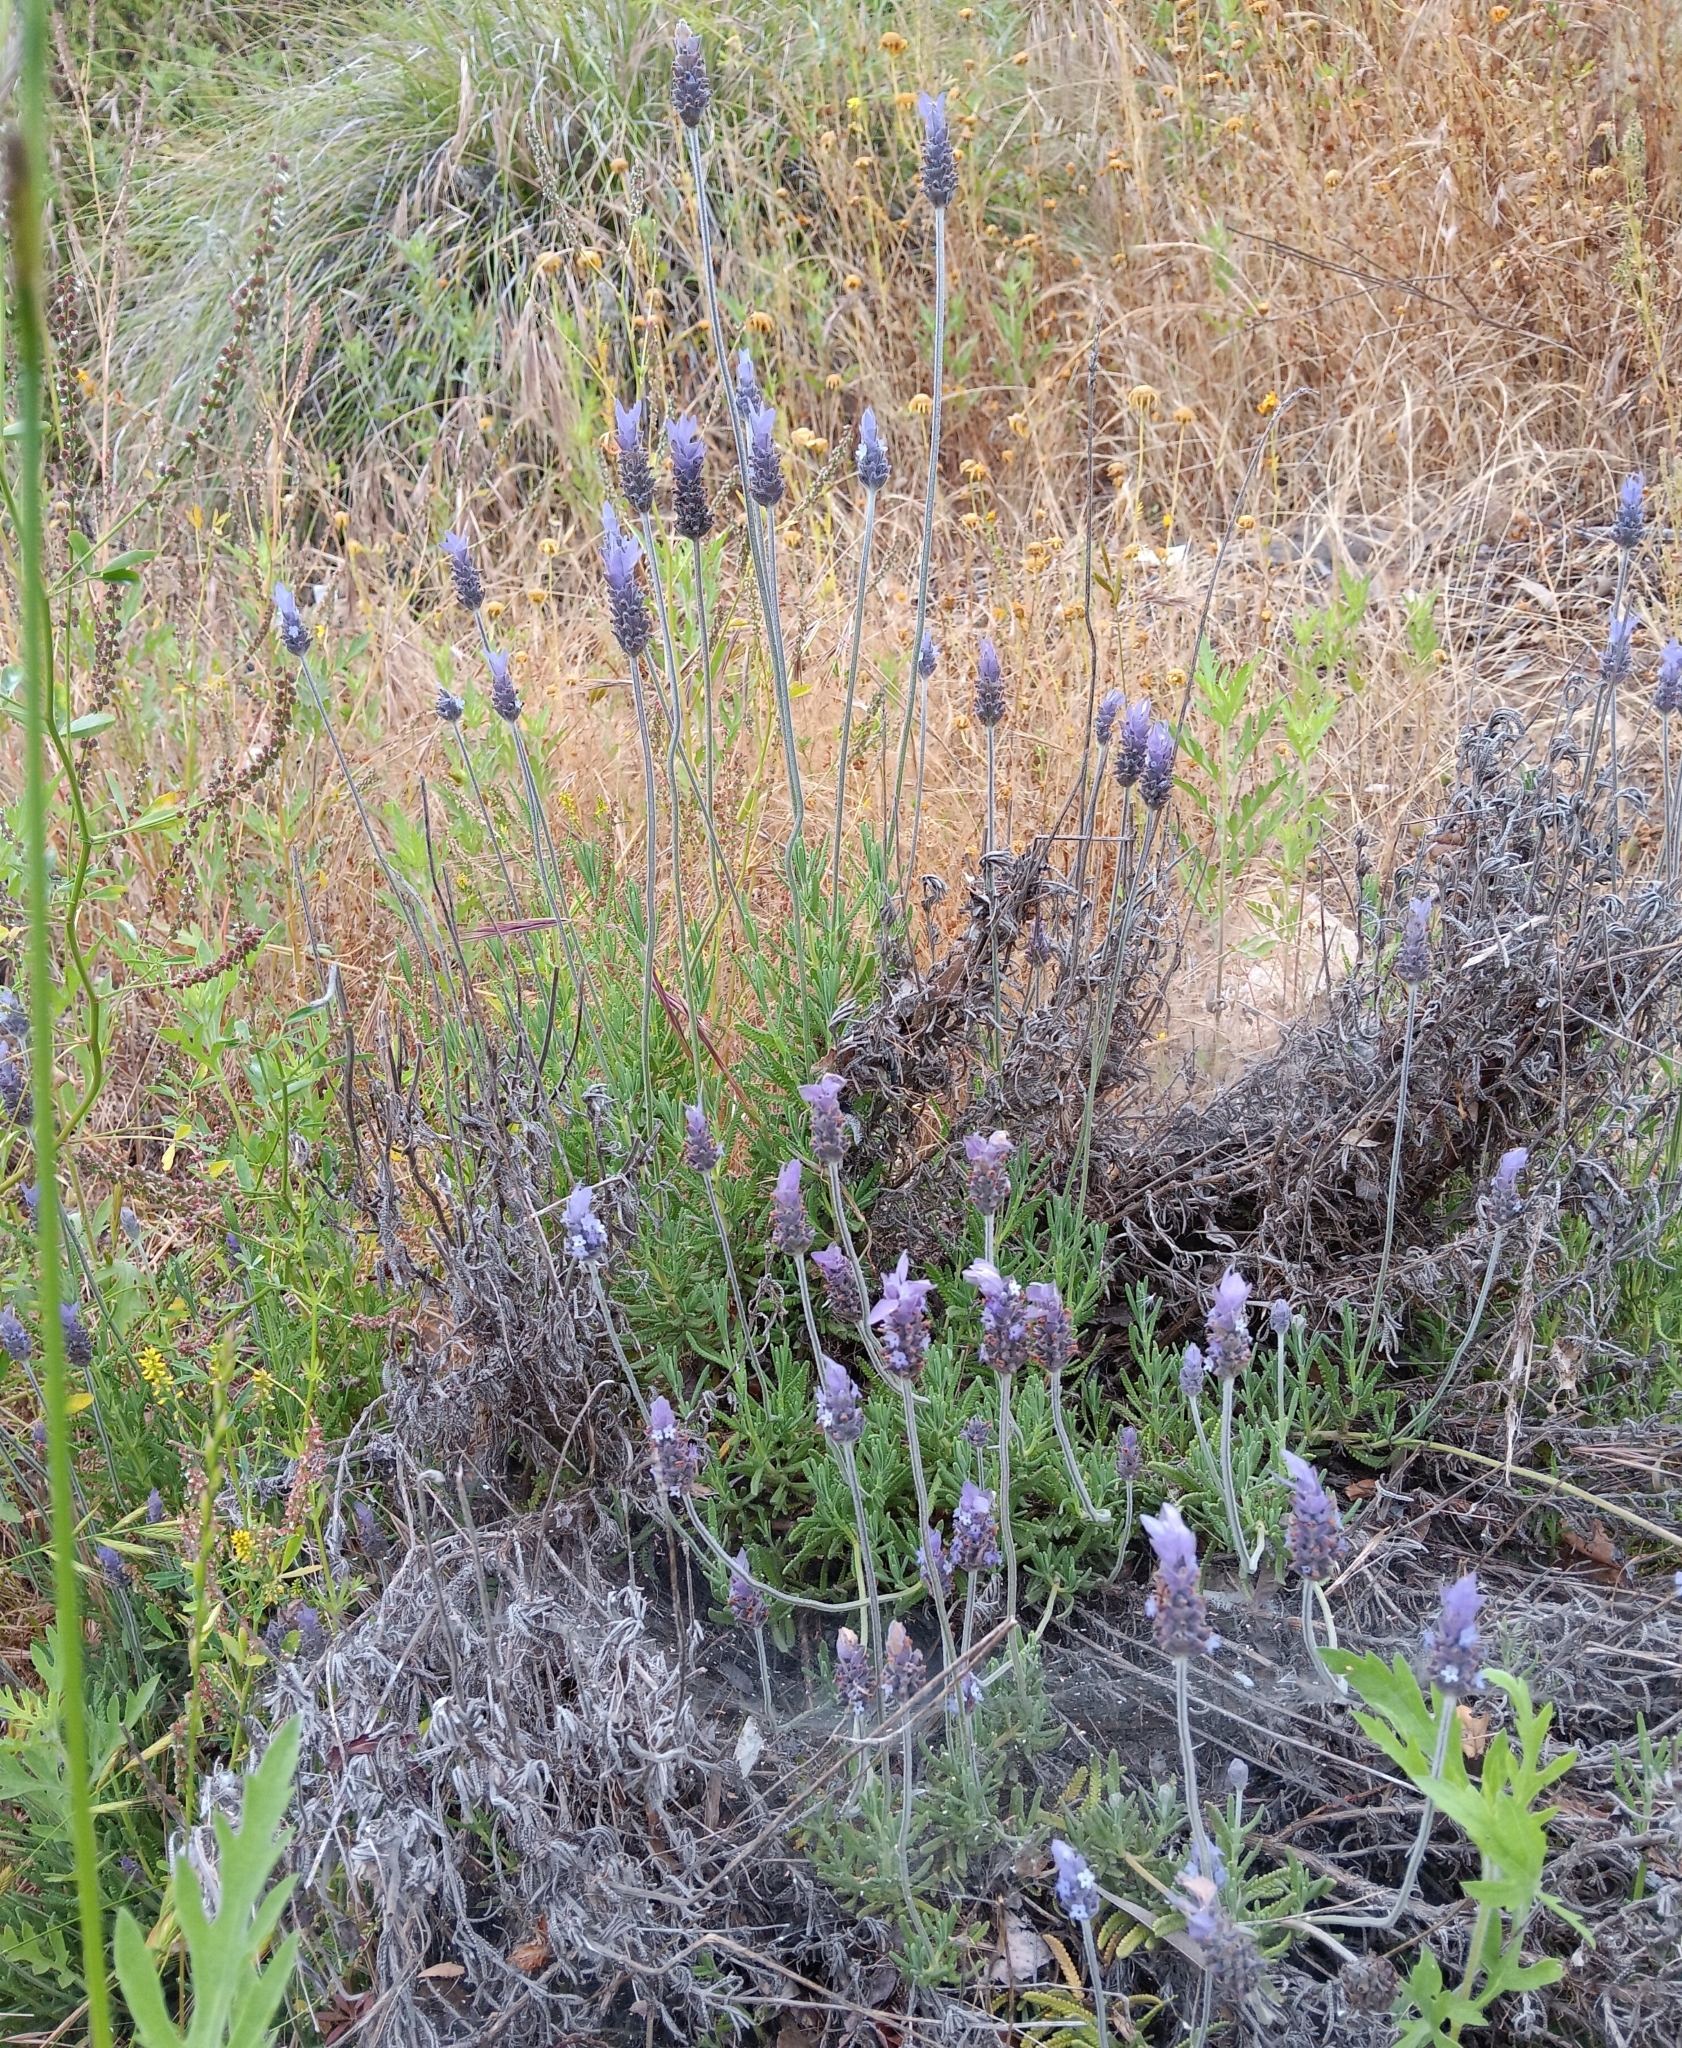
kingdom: Plantae
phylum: Tracheophyta
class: Magnoliopsida
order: Lamiales
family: Lamiaceae
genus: Lavandula
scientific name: Lavandula dentata
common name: French lavender
